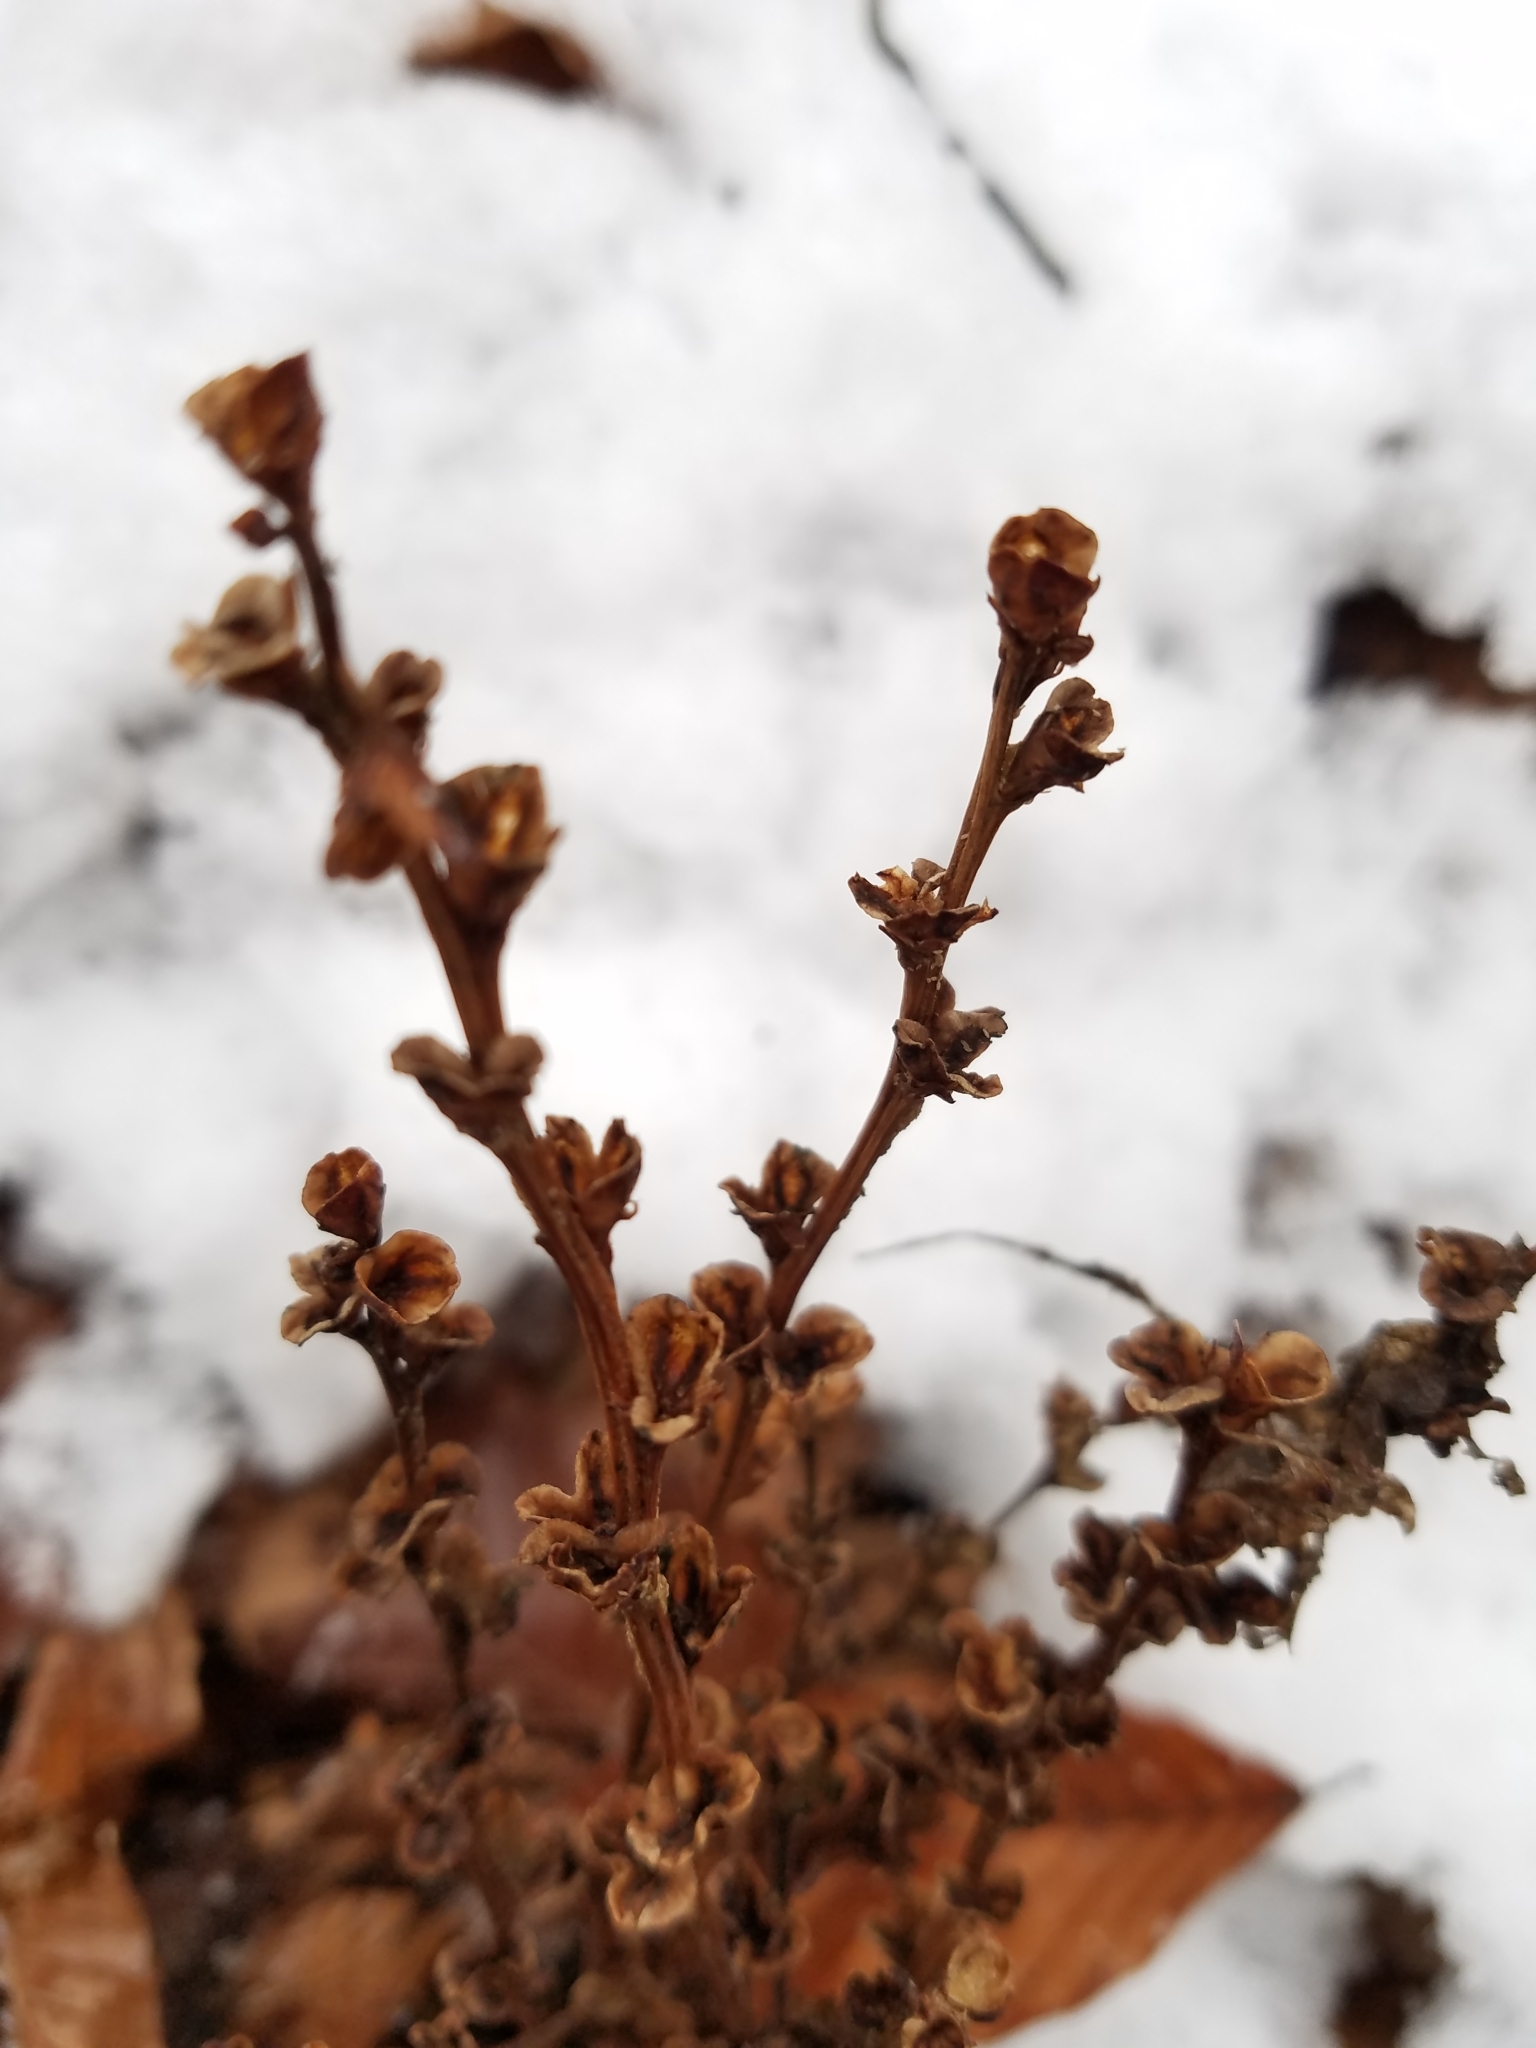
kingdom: Plantae
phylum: Tracheophyta
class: Magnoliopsida
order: Lamiales
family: Orobanchaceae
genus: Epifagus
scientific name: Epifagus virginiana
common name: Beechdrops
